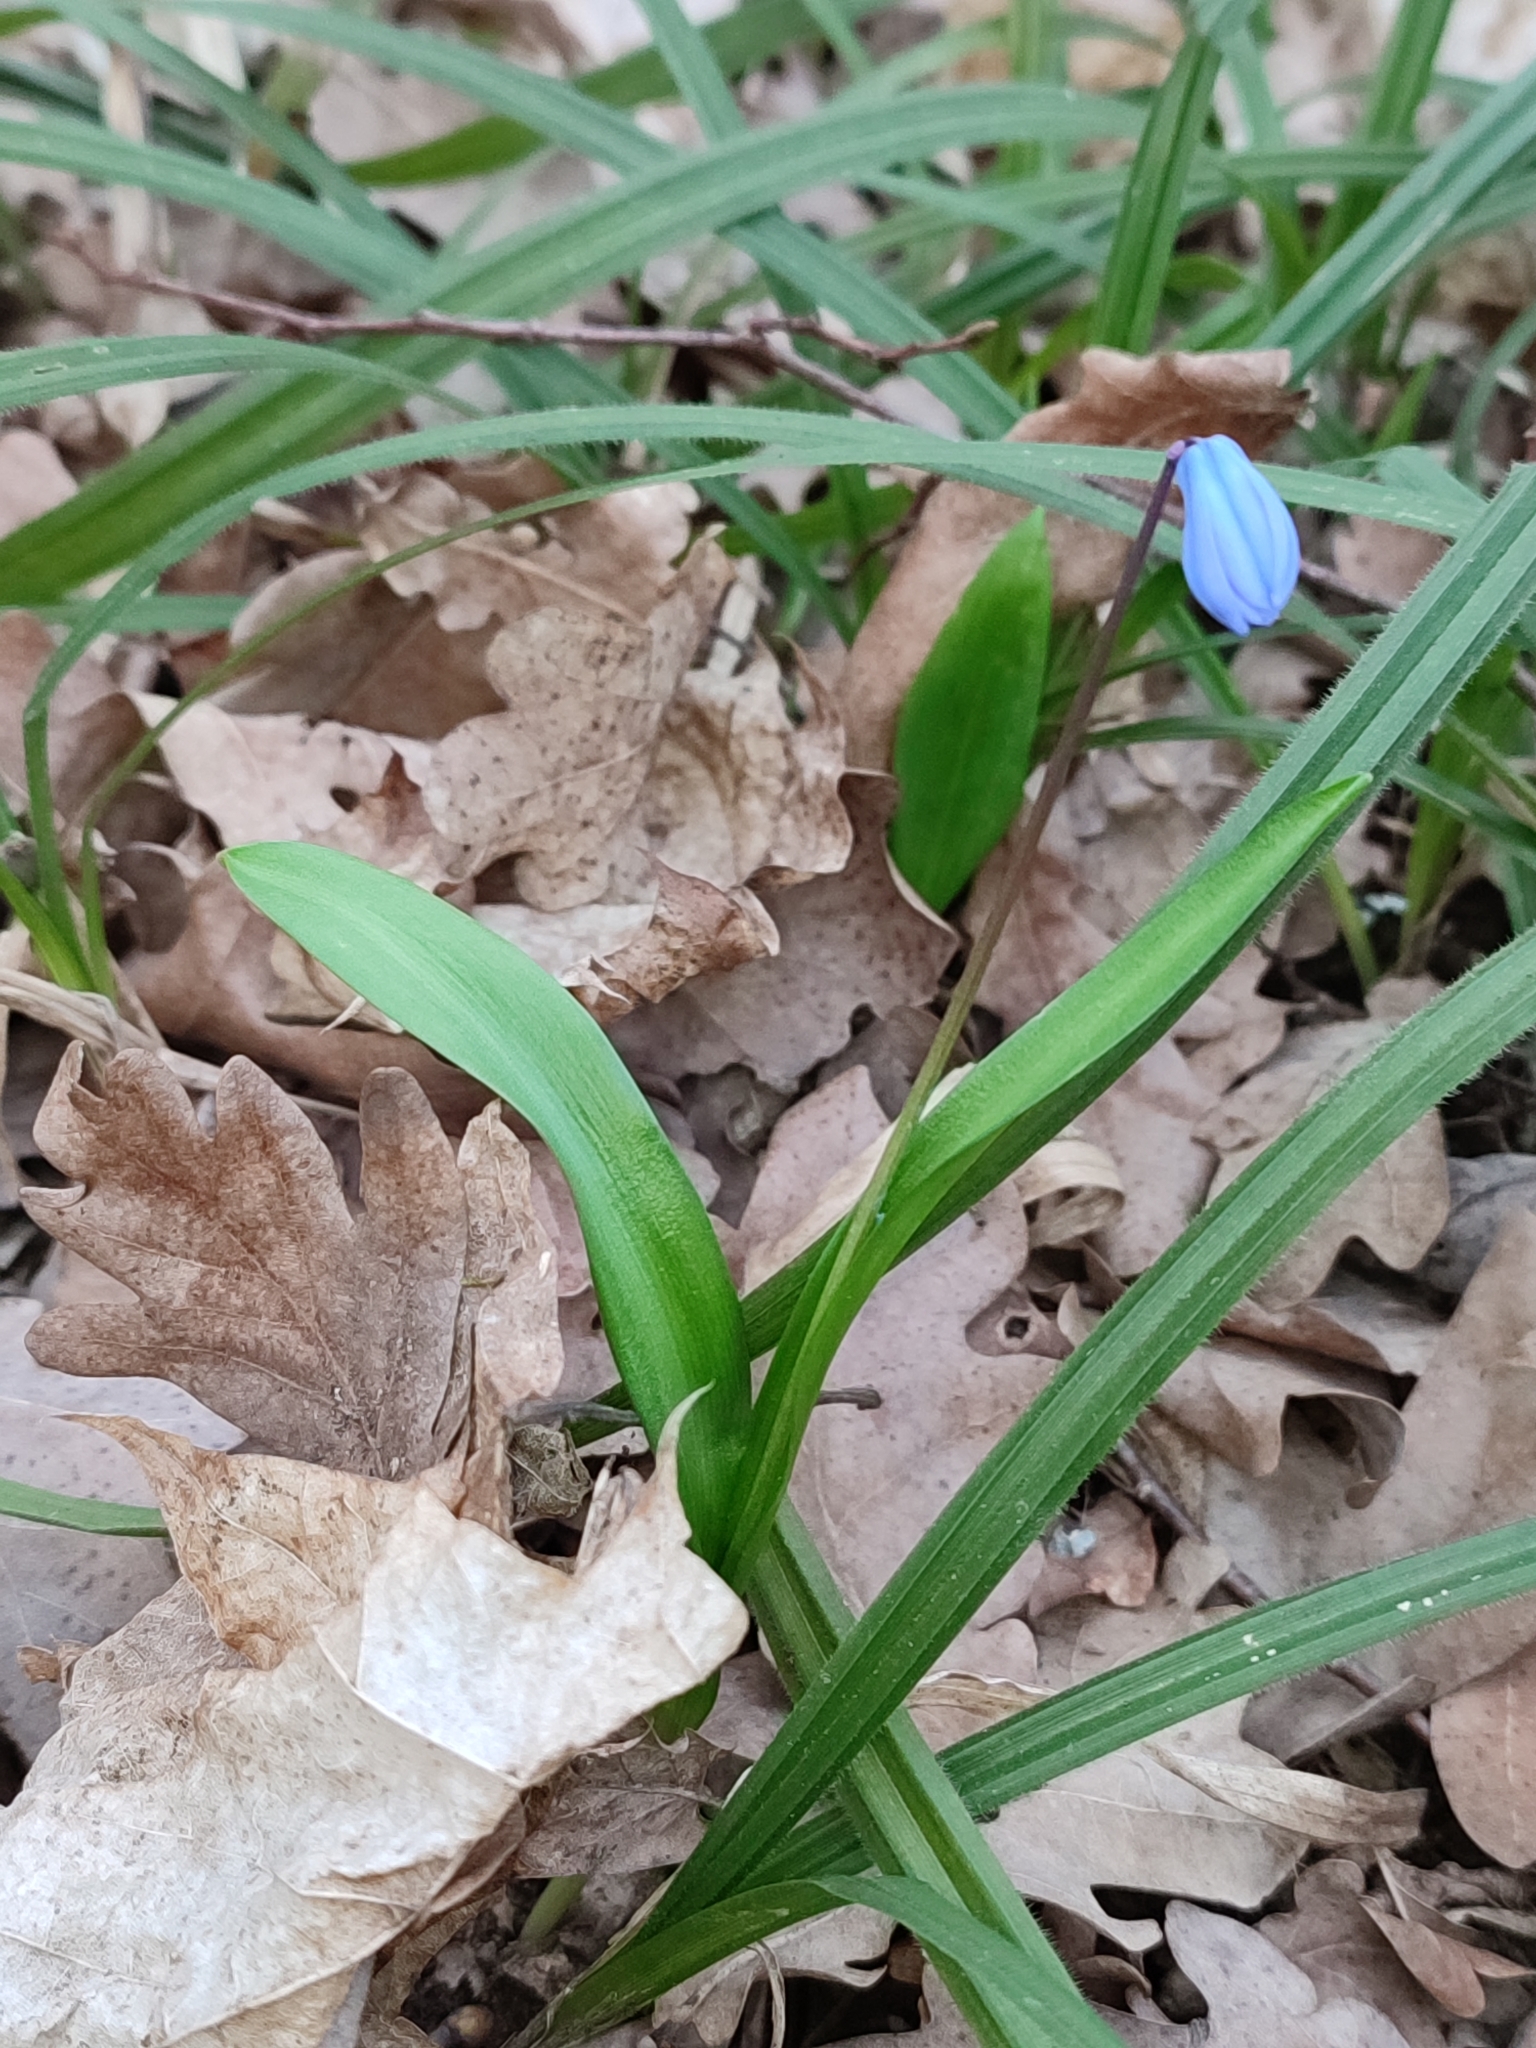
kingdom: Plantae
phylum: Tracheophyta
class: Liliopsida
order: Asparagales
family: Asparagaceae
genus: Scilla
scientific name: Scilla siberica
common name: Siberian squill
